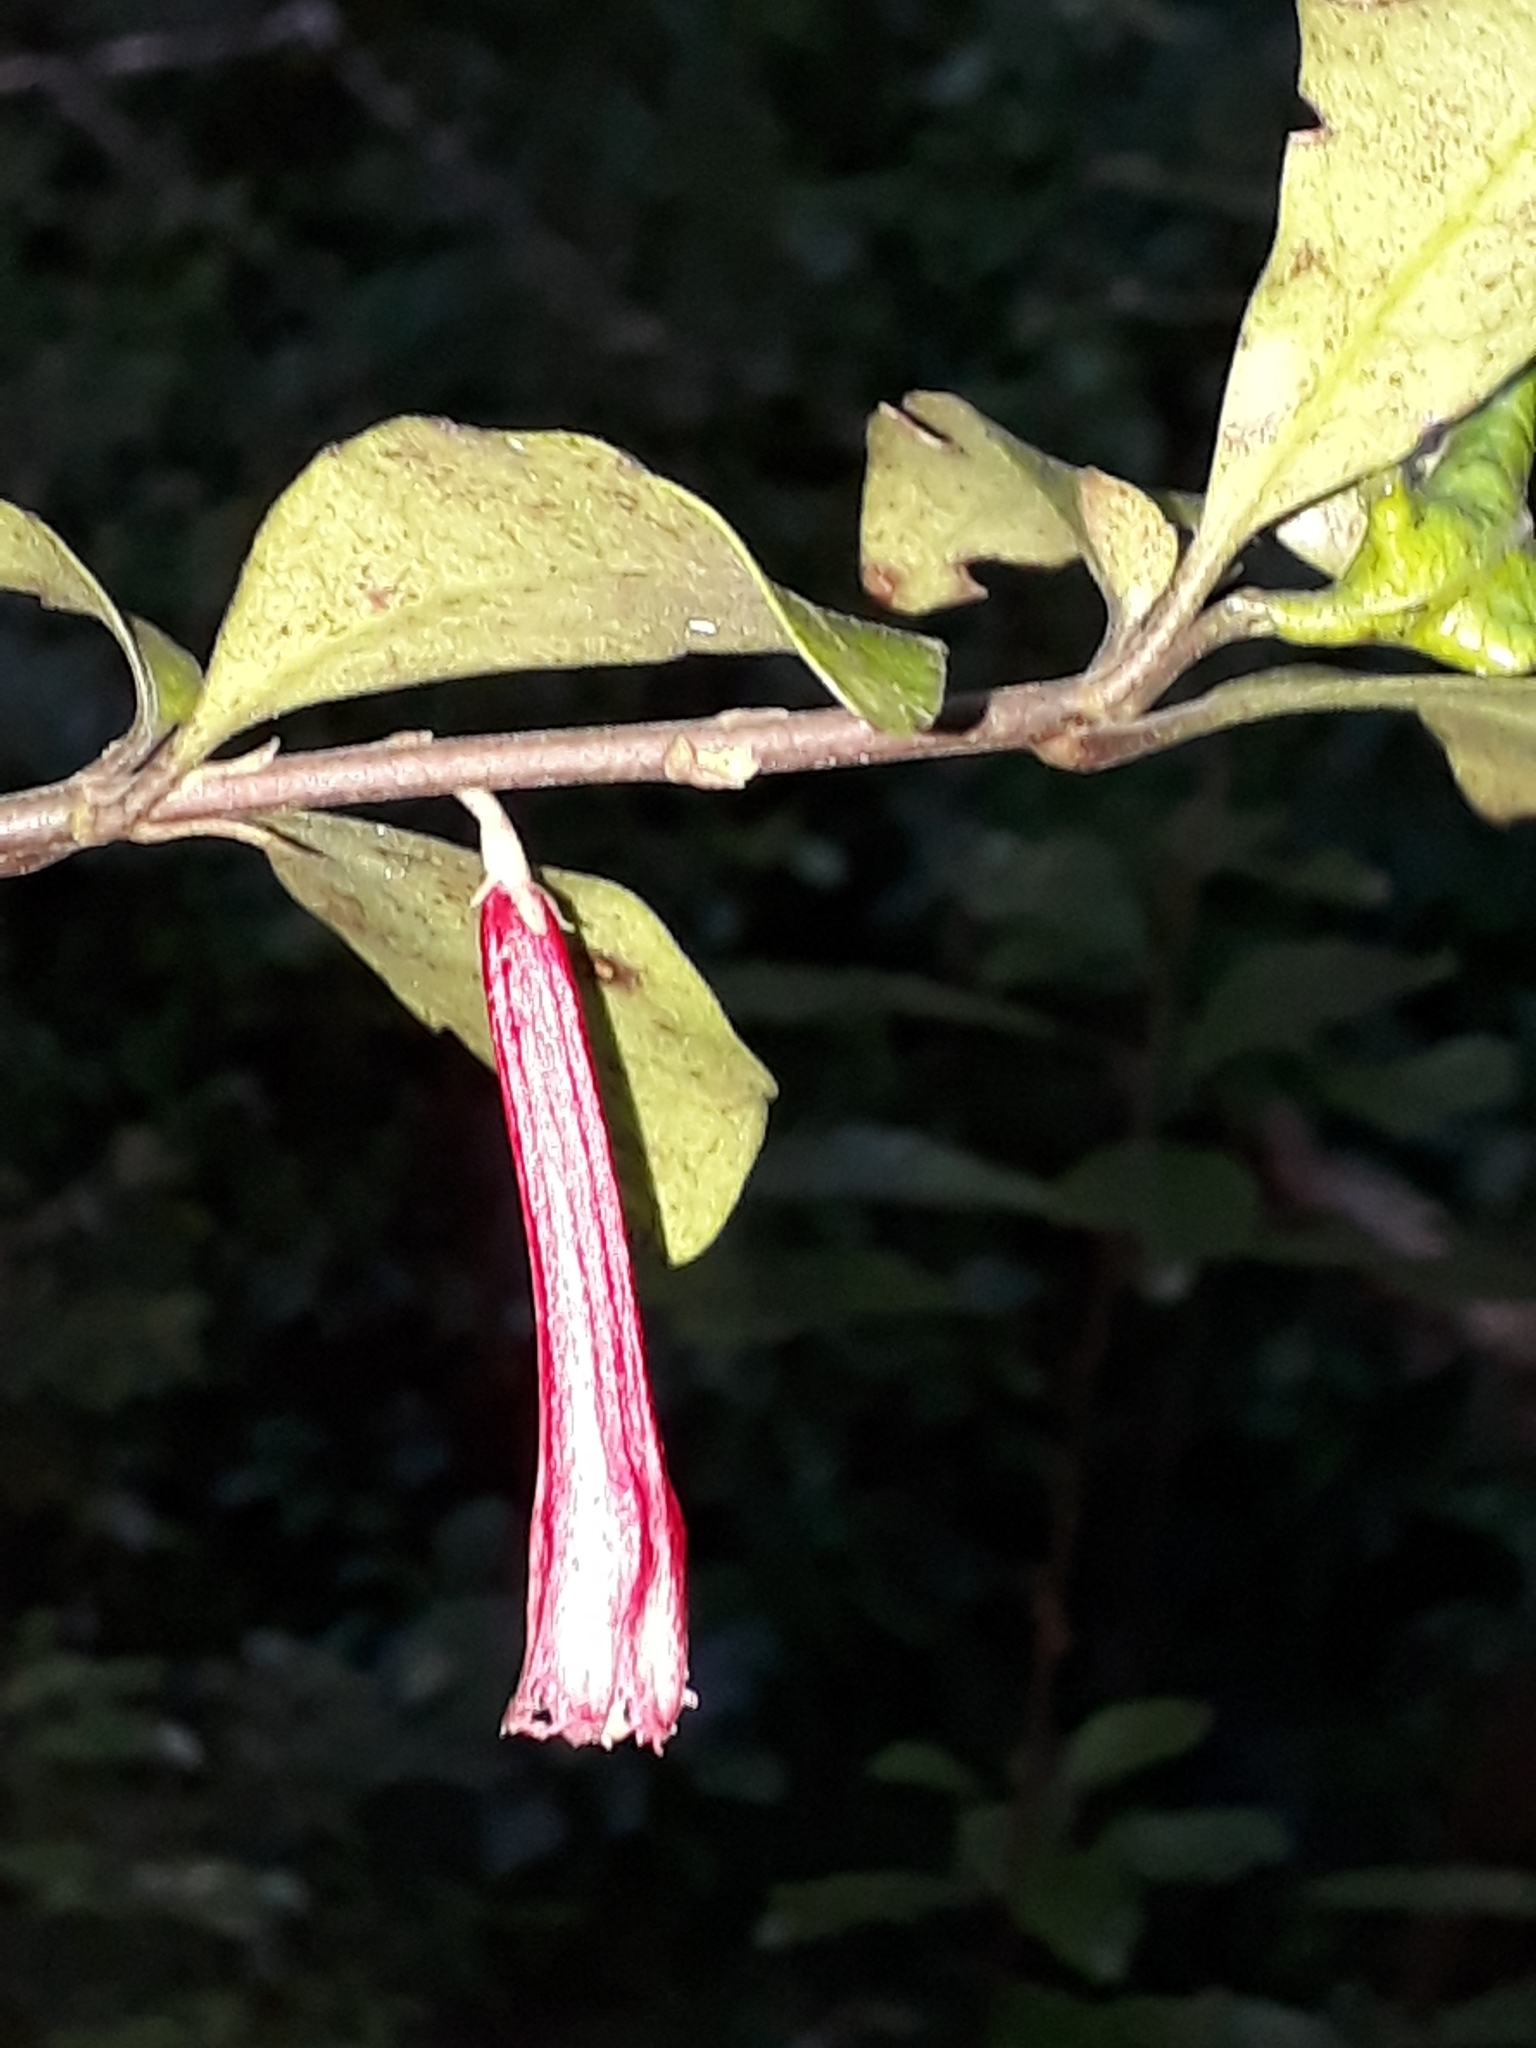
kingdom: Plantae
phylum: Tracheophyta
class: Magnoliopsida
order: Asterales
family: Alseuosmiaceae
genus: Alseuosmia
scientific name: Alseuosmia macrophylla
